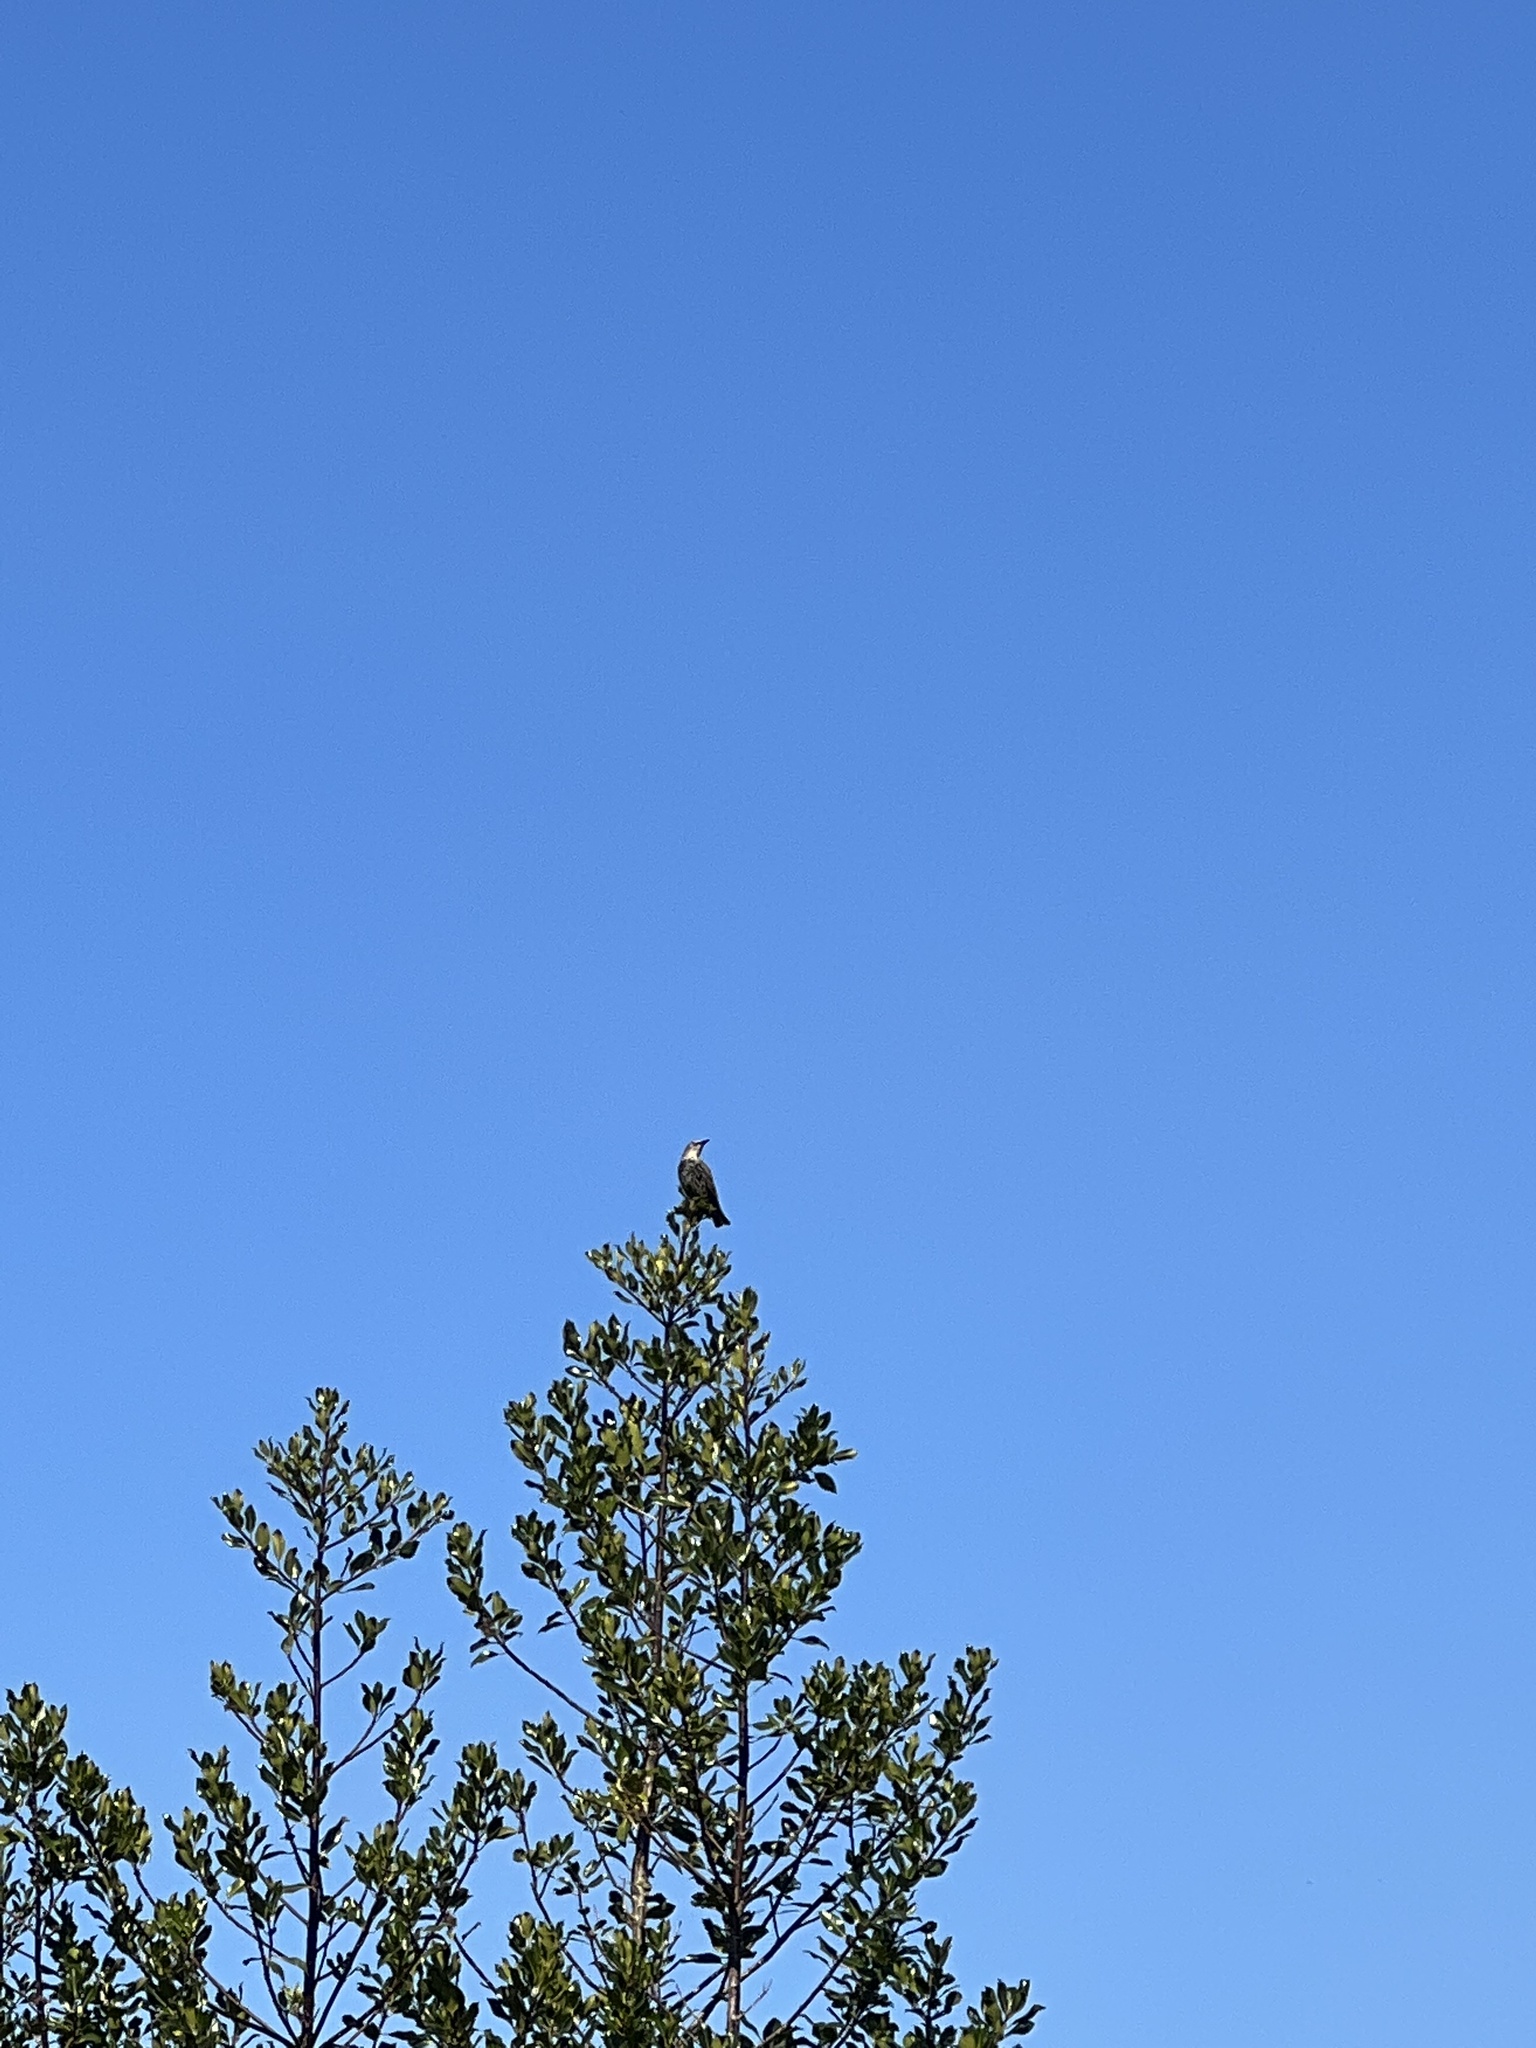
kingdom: Animalia
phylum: Chordata
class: Aves
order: Passeriformes
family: Sturnidae
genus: Sturnus
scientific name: Sturnus vulgaris
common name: Common starling
